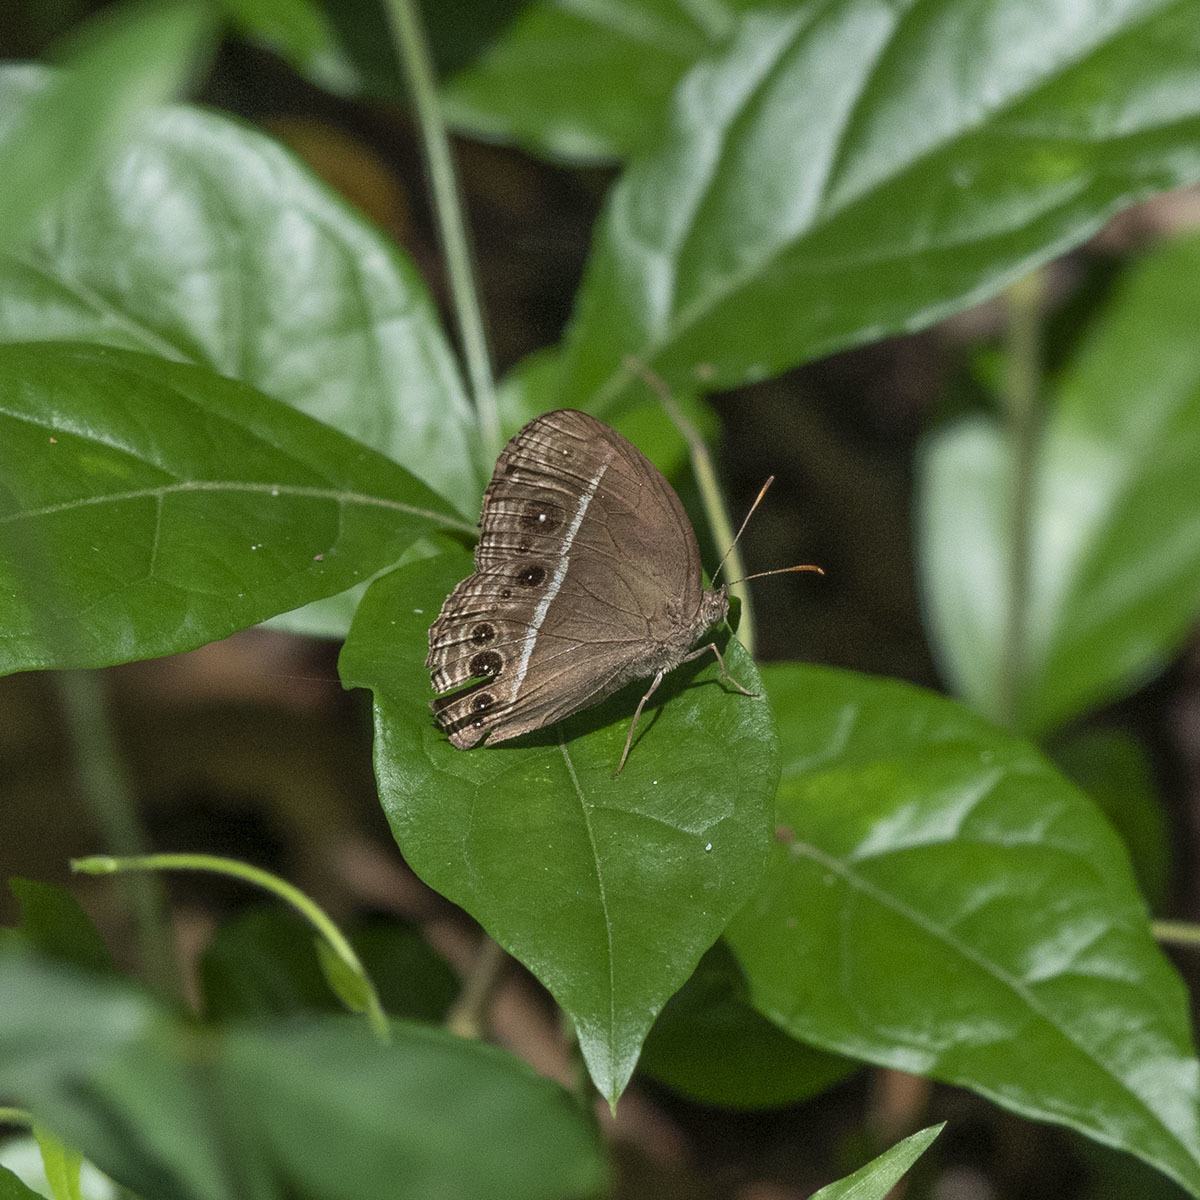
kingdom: Animalia
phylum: Arthropoda
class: Insecta
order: Lepidoptera
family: Nymphalidae
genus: Mycalesis
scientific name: Mycalesis subdita
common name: Tamil bushbrown
